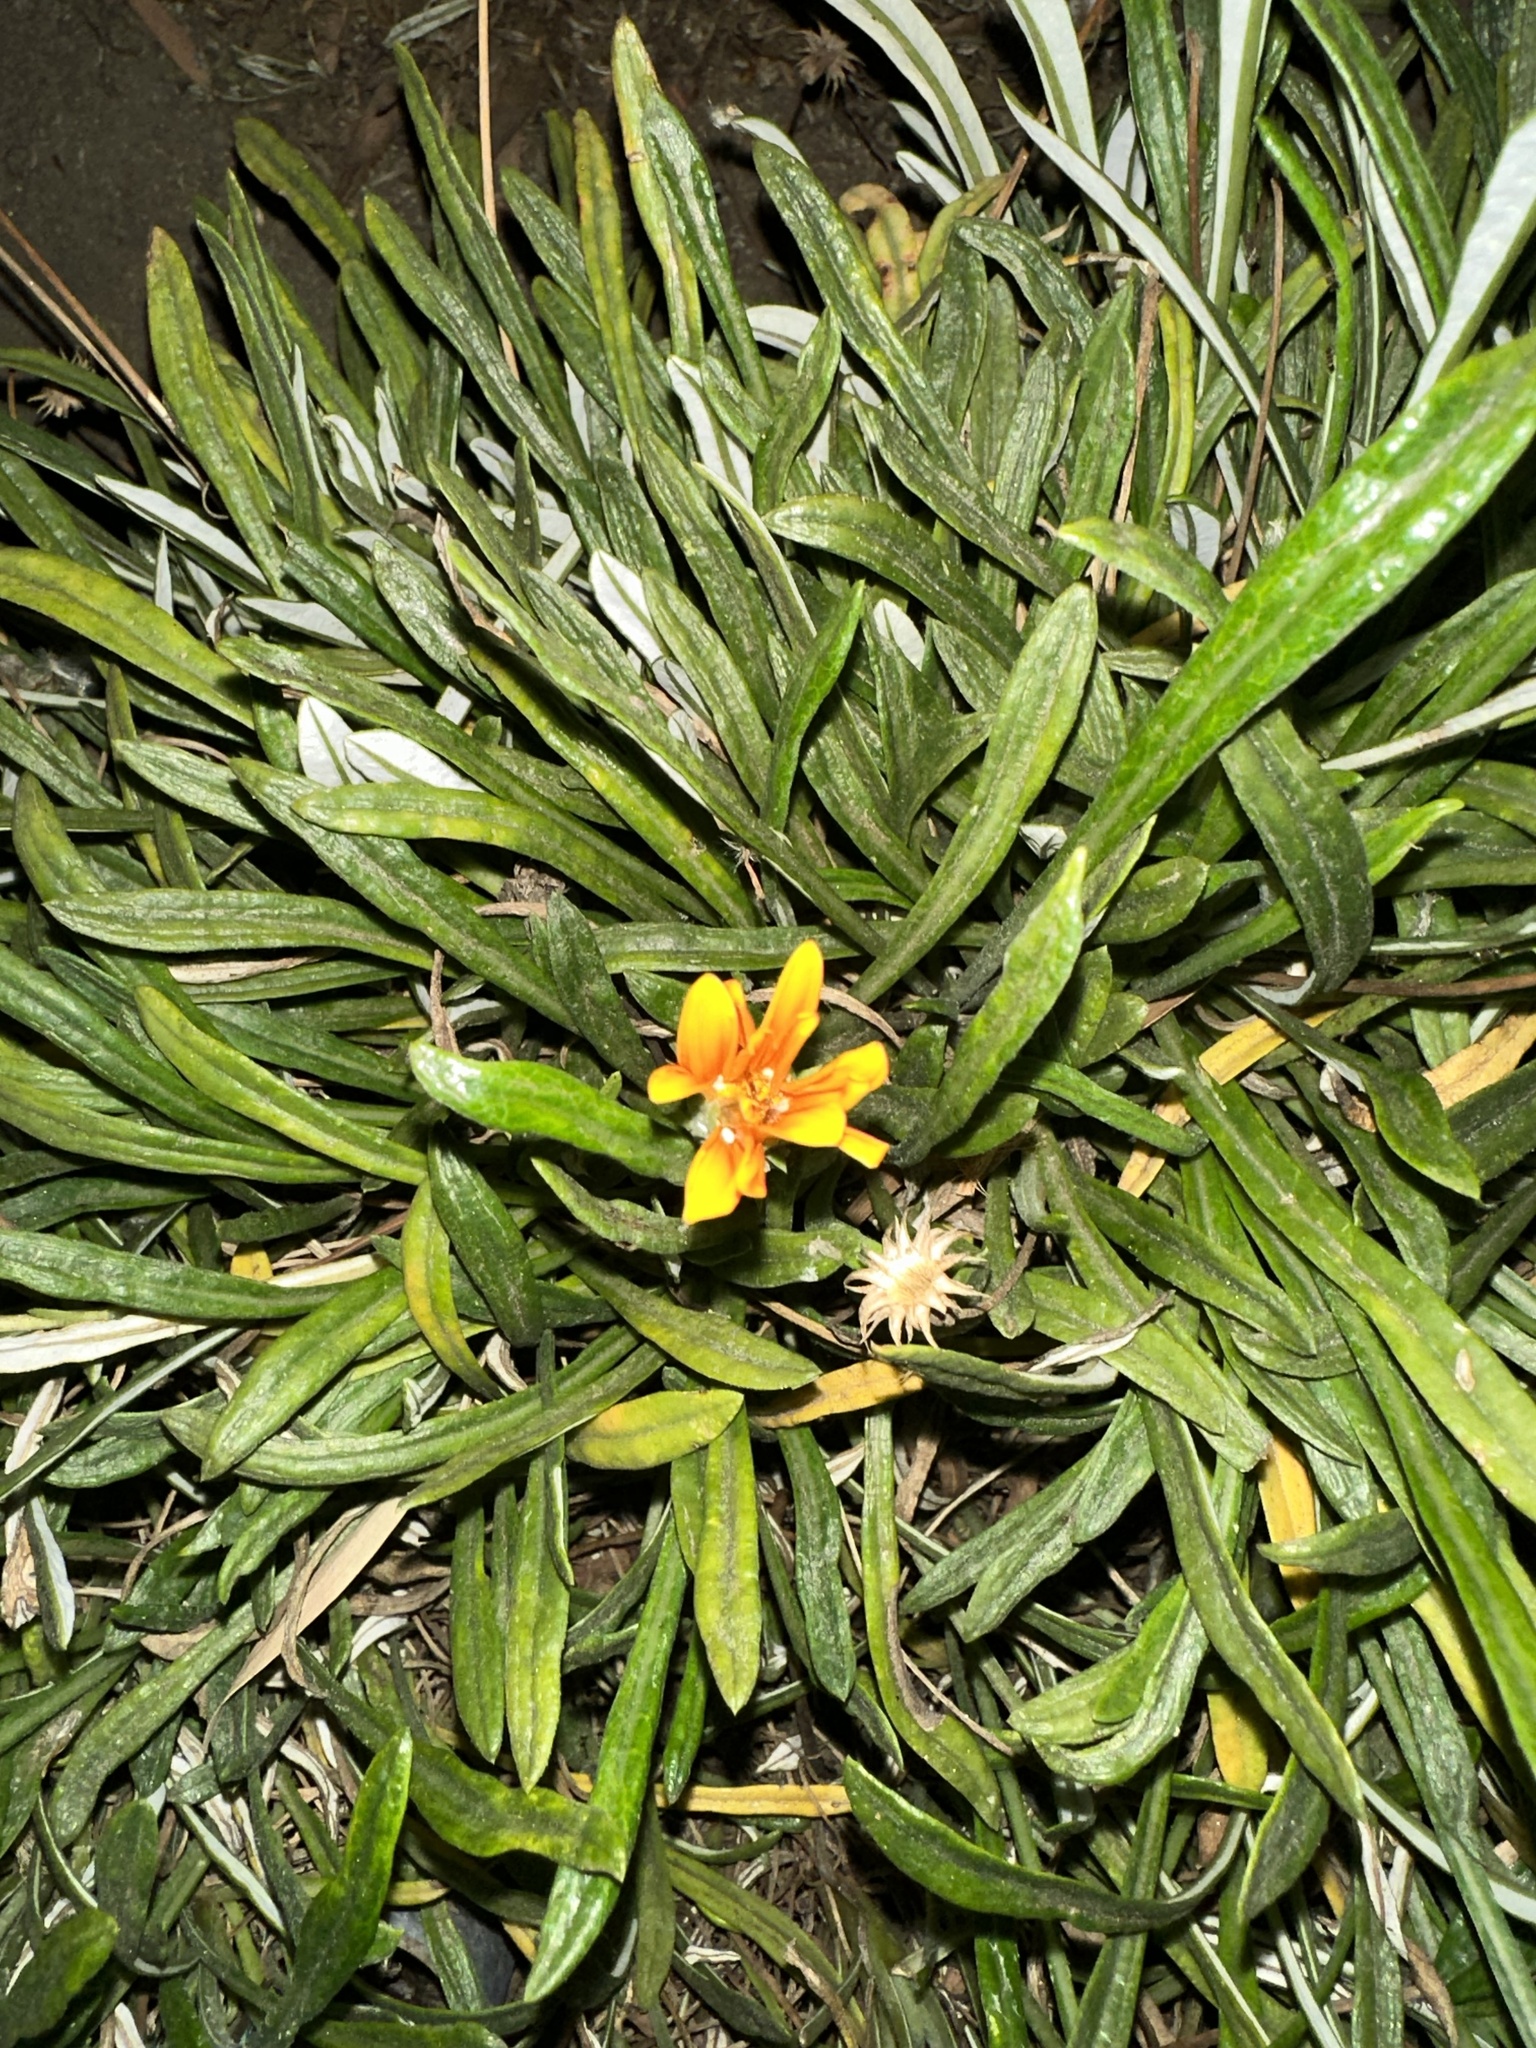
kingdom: Plantae
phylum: Tracheophyta
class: Magnoliopsida
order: Asterales
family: Asteraceae
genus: Gazania
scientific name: Gazania linearis
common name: Treasureflower
